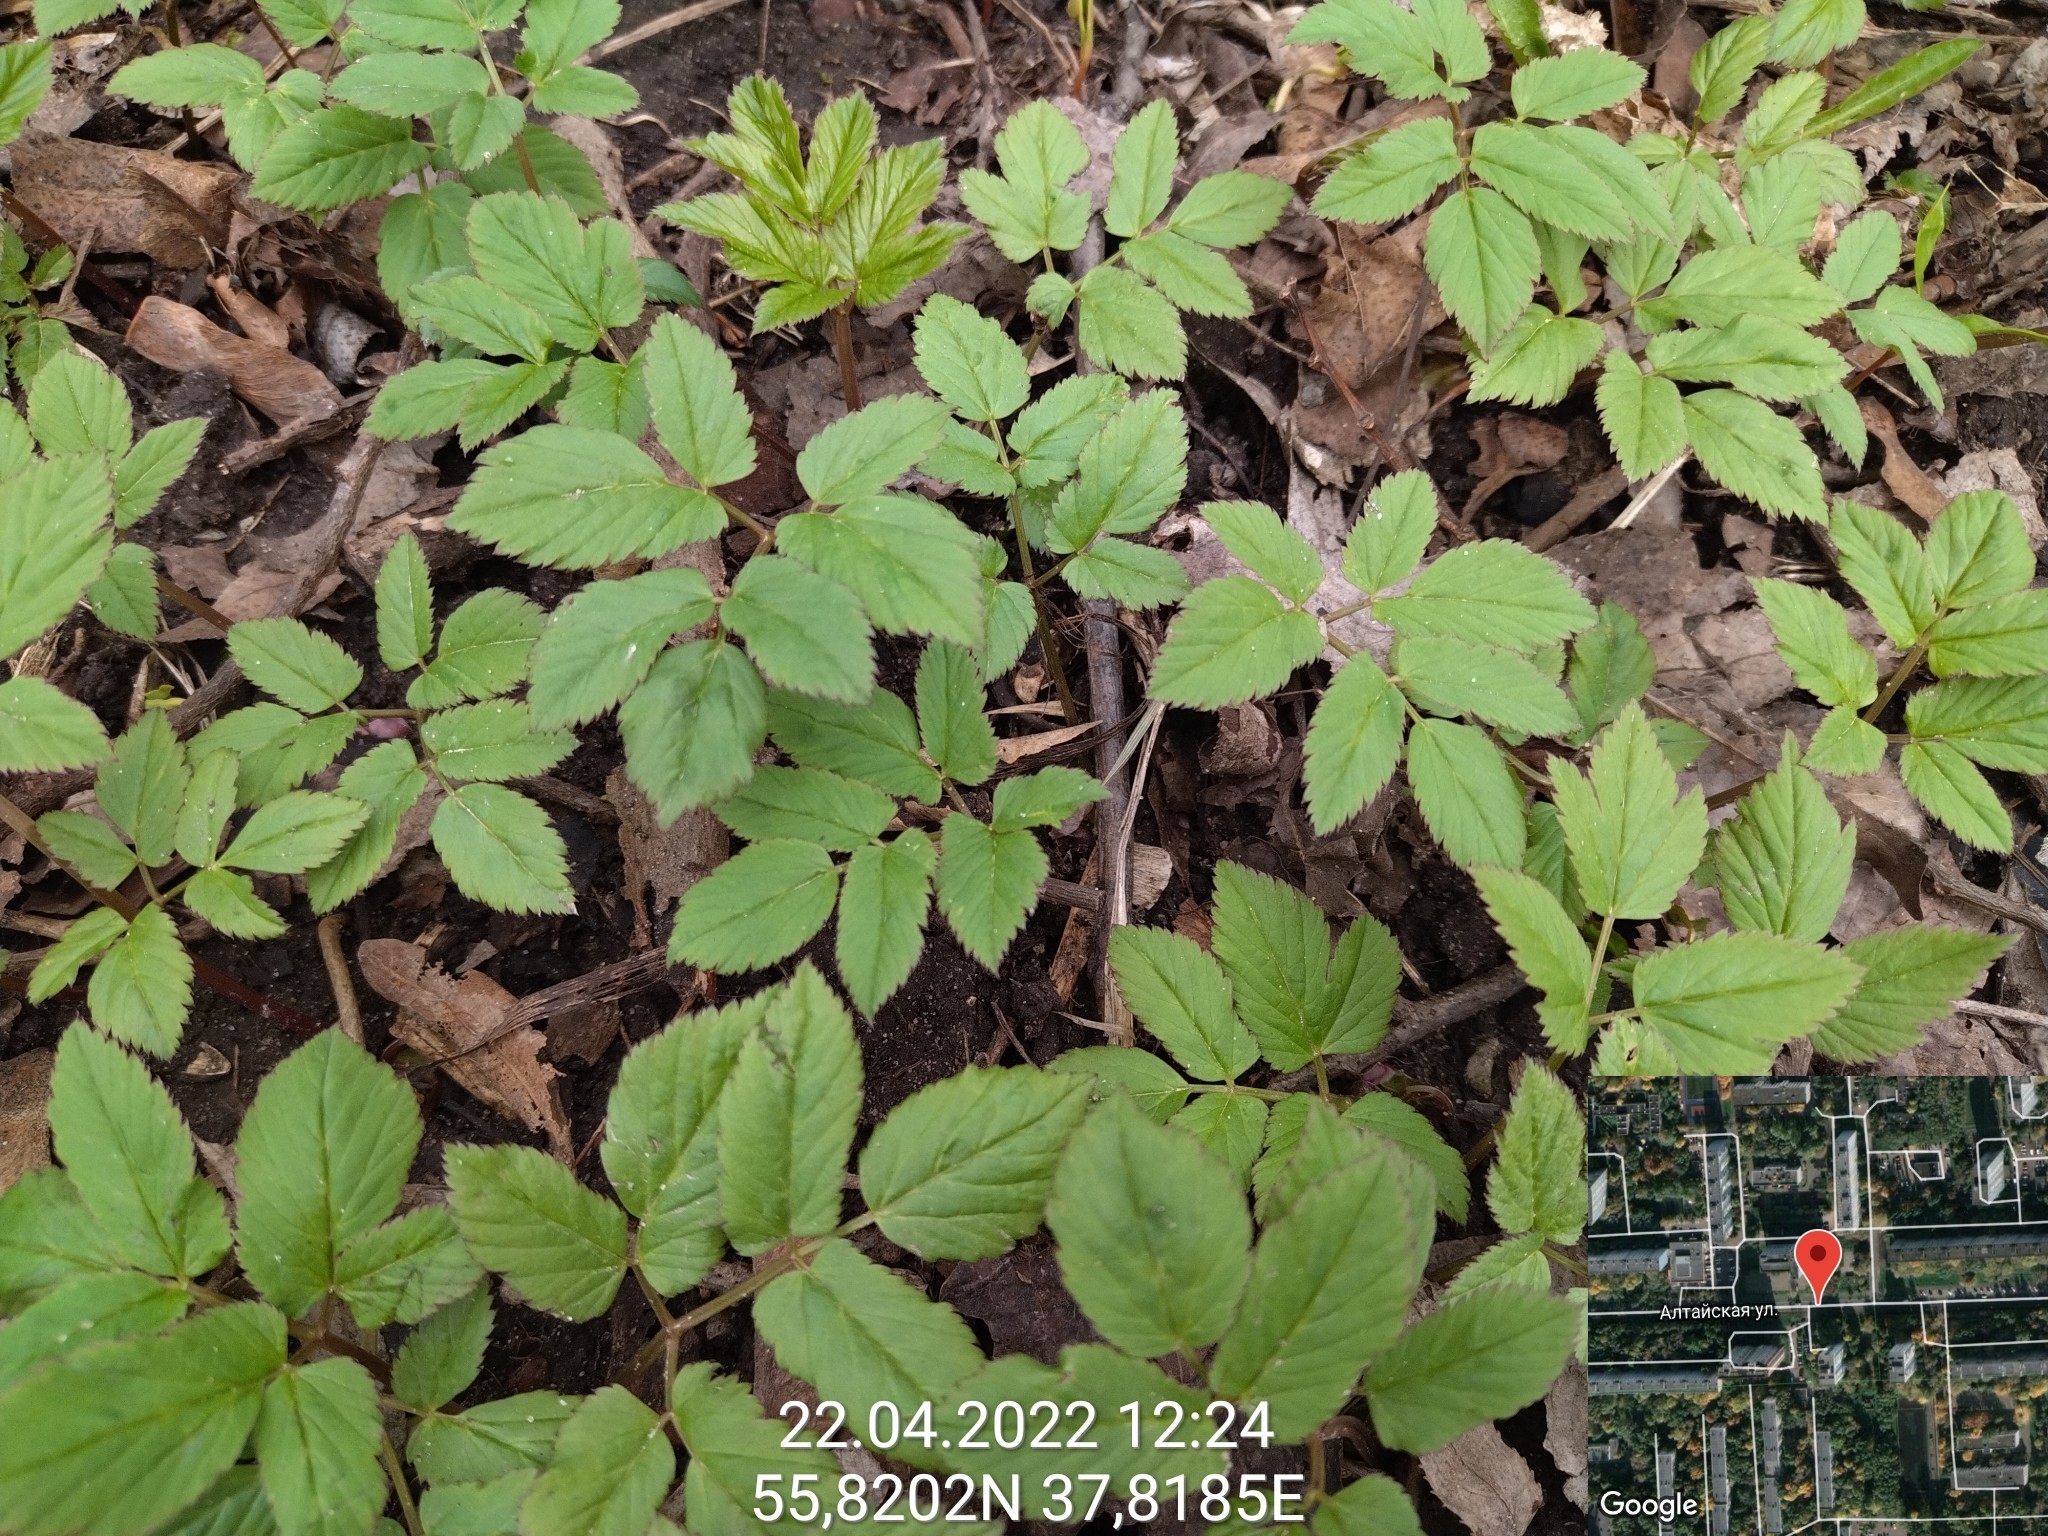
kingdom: Plantae
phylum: Tracheophyta
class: Magnoliopsida
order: Apiales
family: Apiaceae
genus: Aegopodium
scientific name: Aegopodium podagraria
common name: Ground-elder
